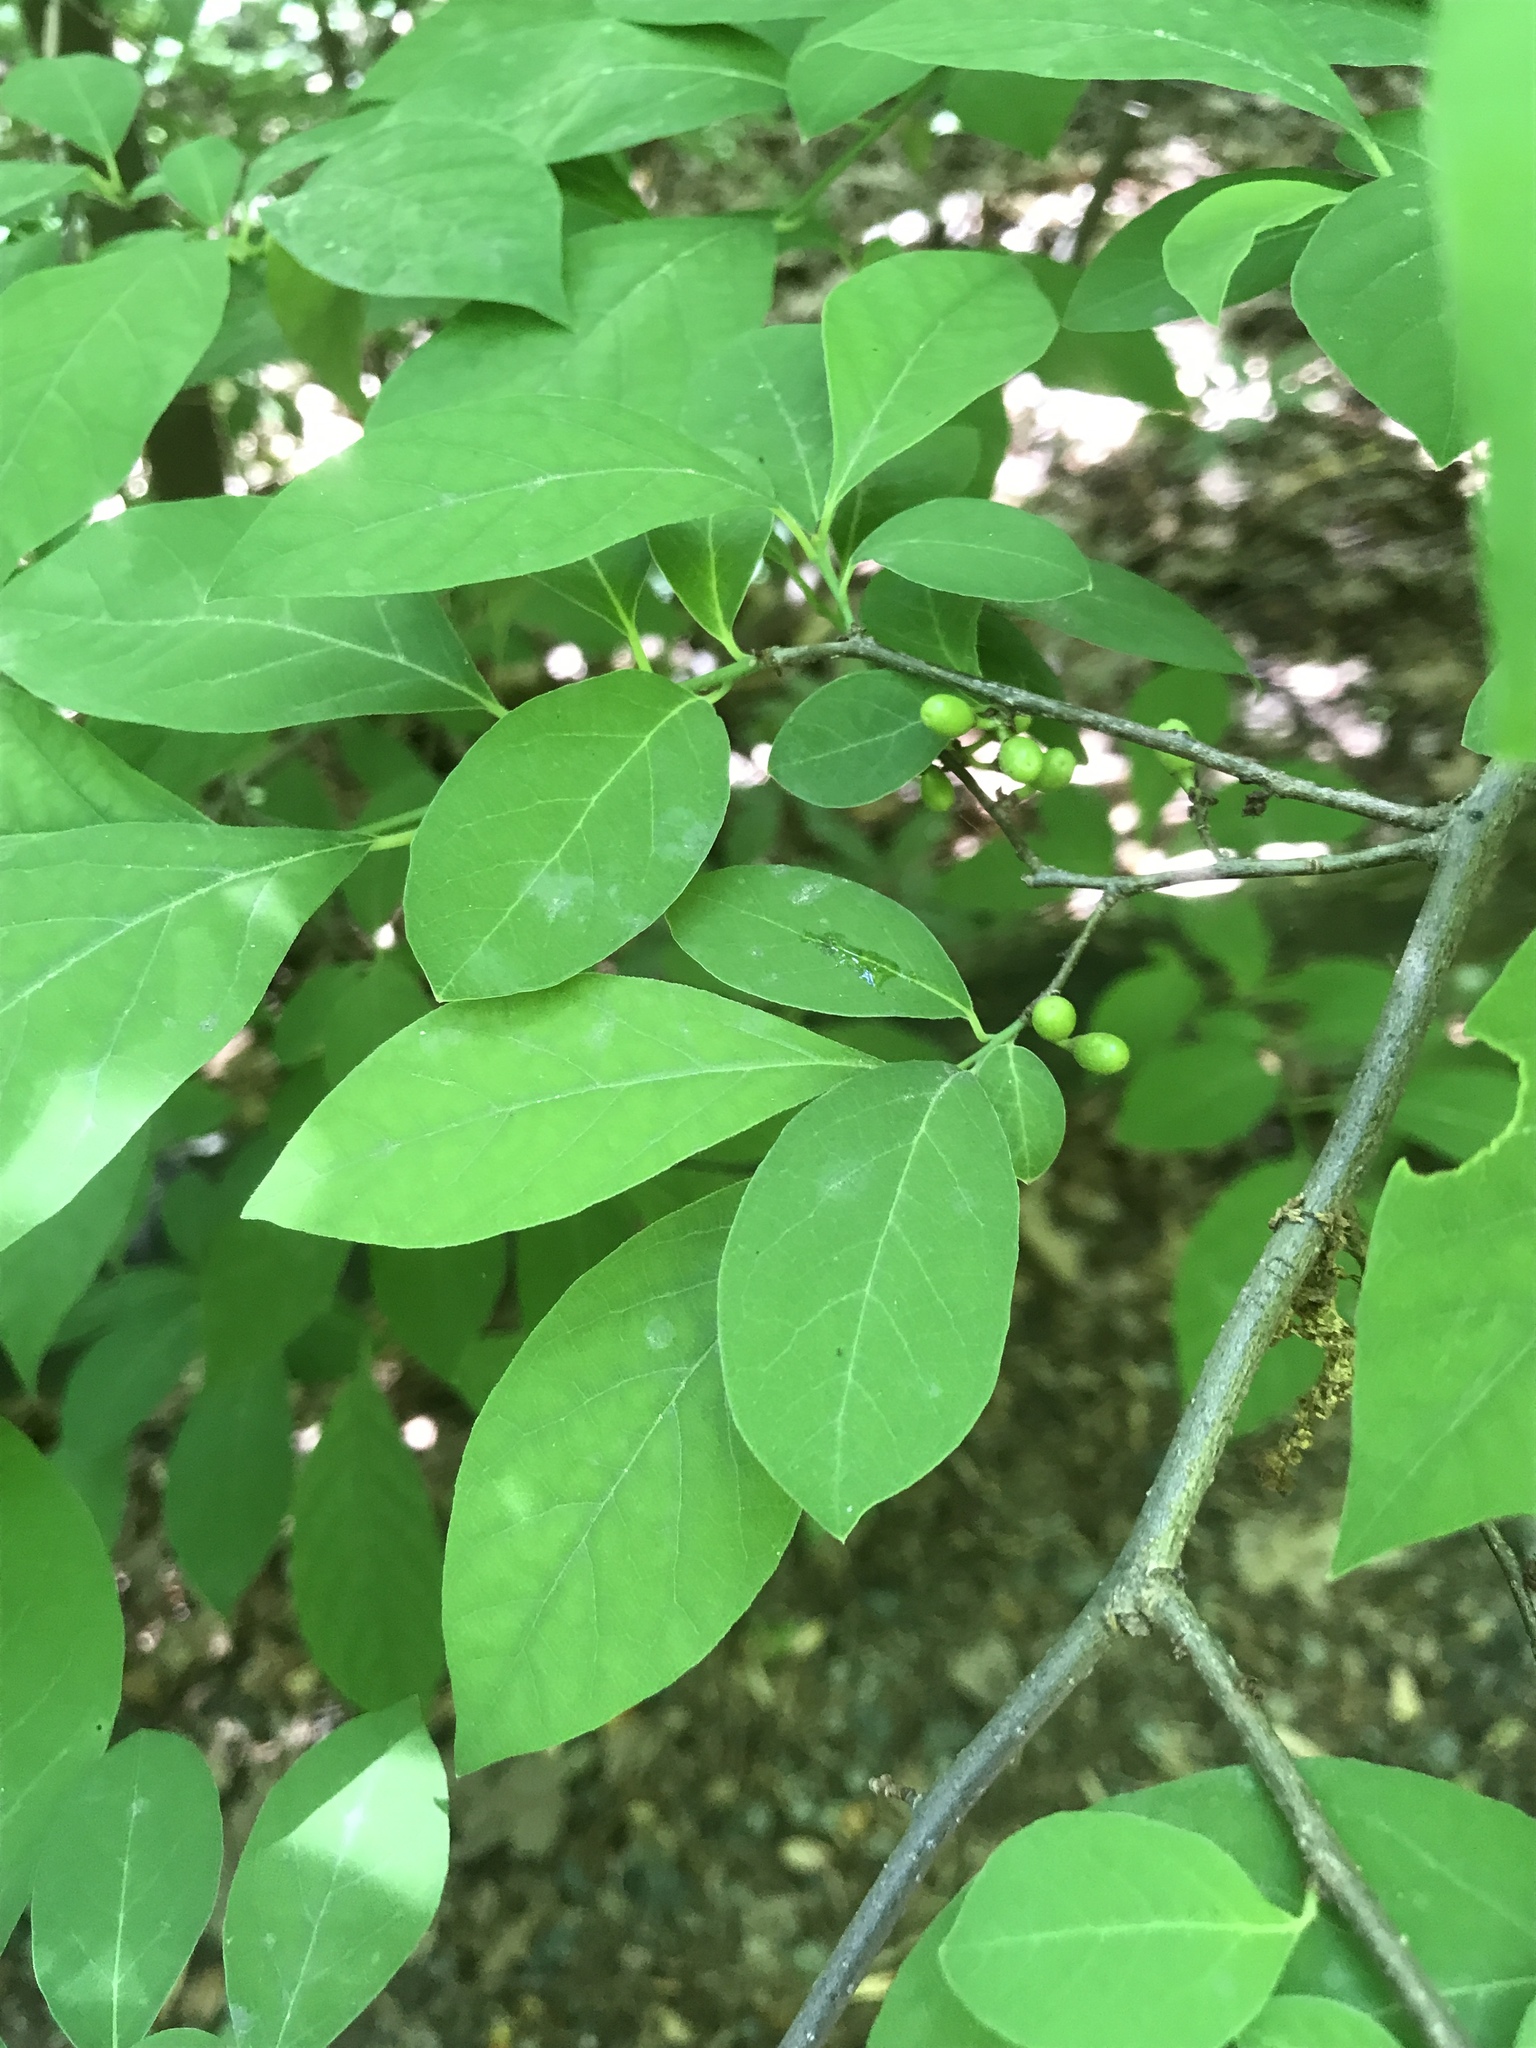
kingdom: Plantae
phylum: Tracheophyta
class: Magnoliopsida
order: Laurales
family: Lauraceae
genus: Lindera
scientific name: Lindera benzoin
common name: Spicebush
